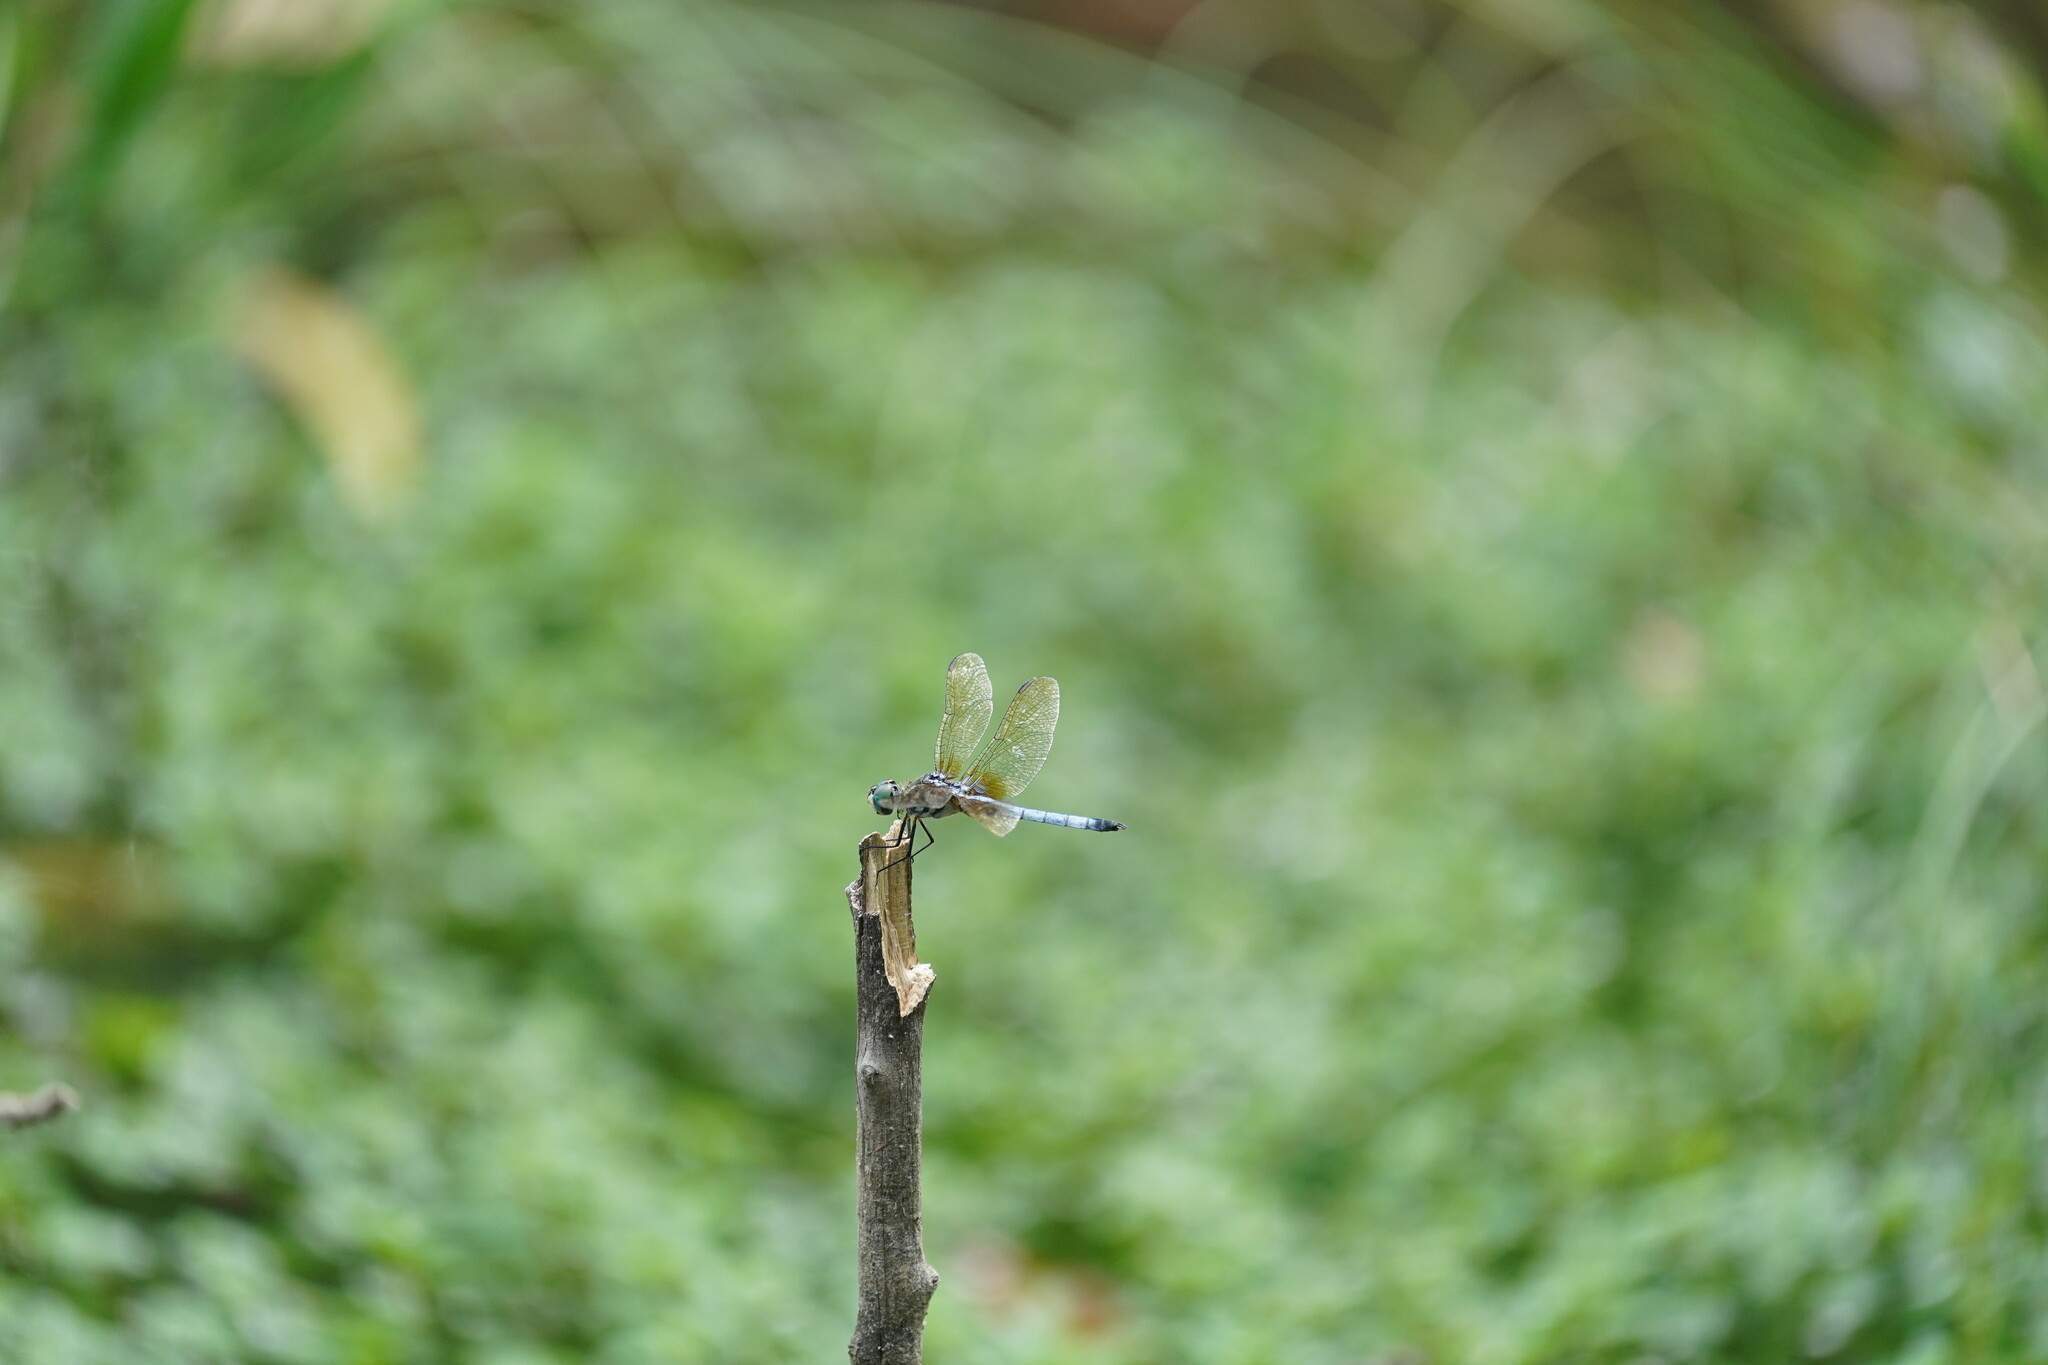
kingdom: Animalia
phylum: Arthropoda
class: Insecta
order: Odonata
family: Libellulidae
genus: Pachydiplax
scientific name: Pachydiplax longipennis
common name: Blue dasher
